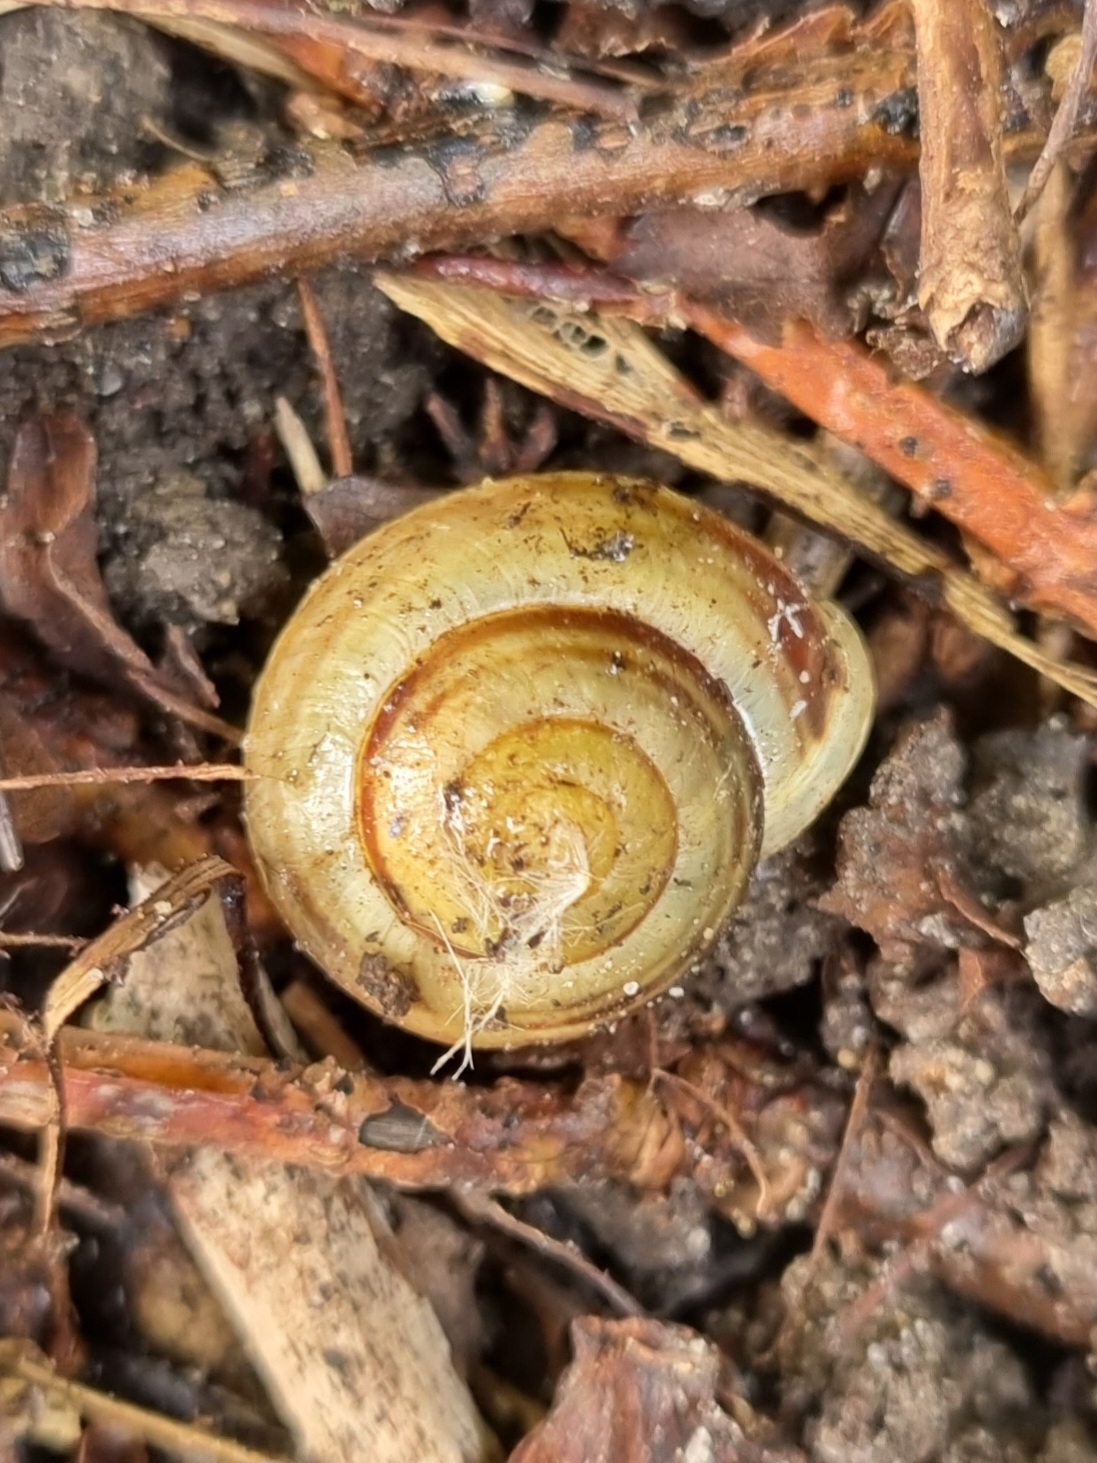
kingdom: Animalia
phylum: Mollusca
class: Gastropoda
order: Stylommatophora
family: Helicidae
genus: Cepaea
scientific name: Cepaea hortensis
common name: White-lip gardensnail
